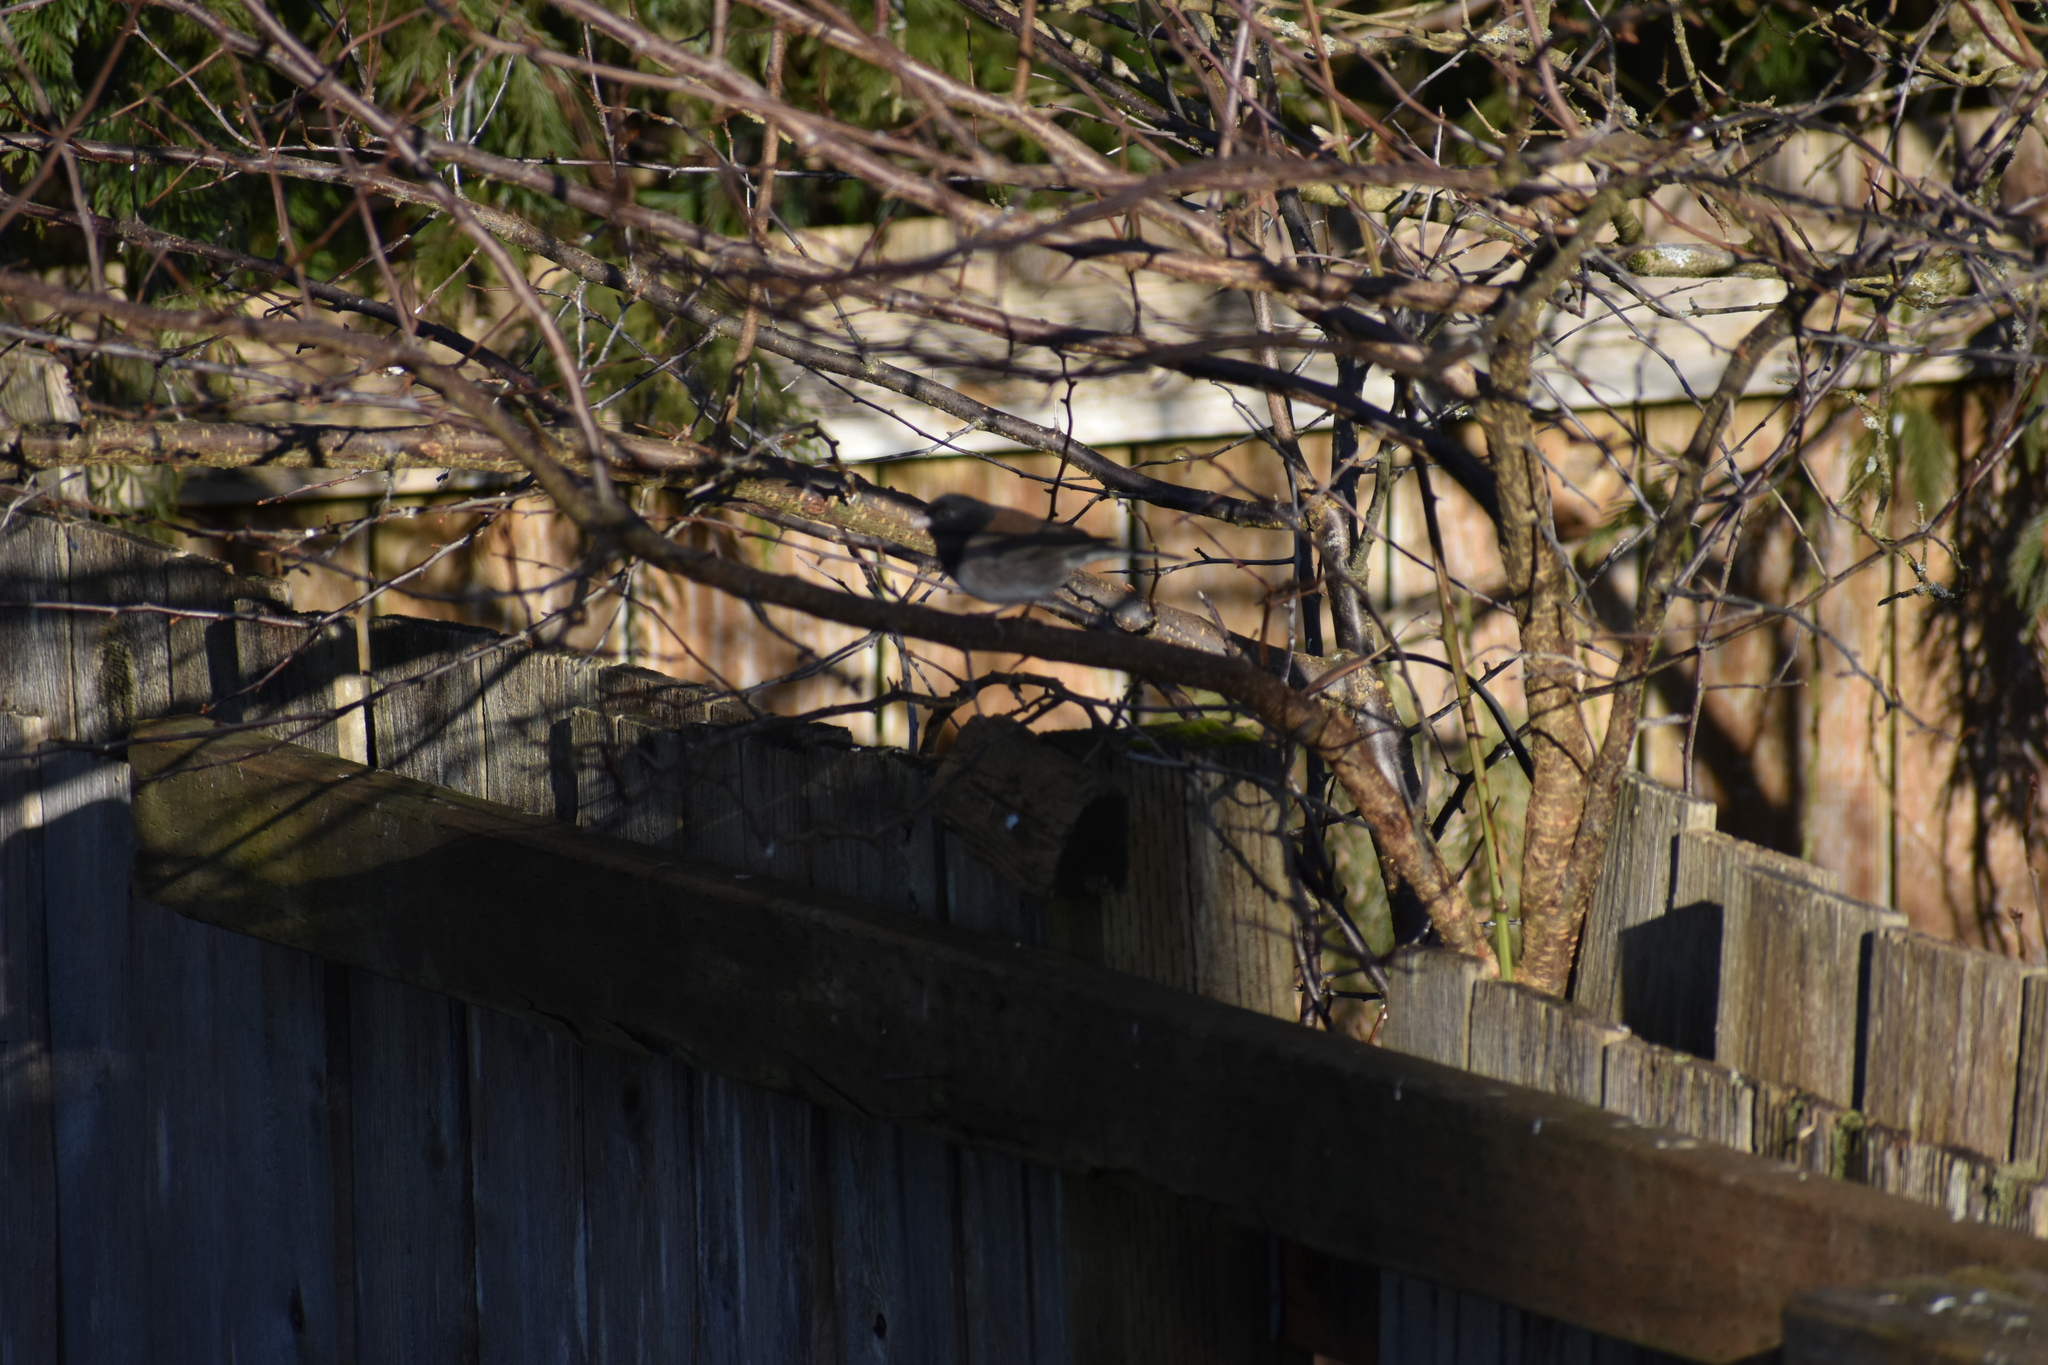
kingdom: Animalia
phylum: Chordata
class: Aves
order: Passeriformes
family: Passerellidae
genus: Junco
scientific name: Junco hyemalis
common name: Dark-eyed junco
